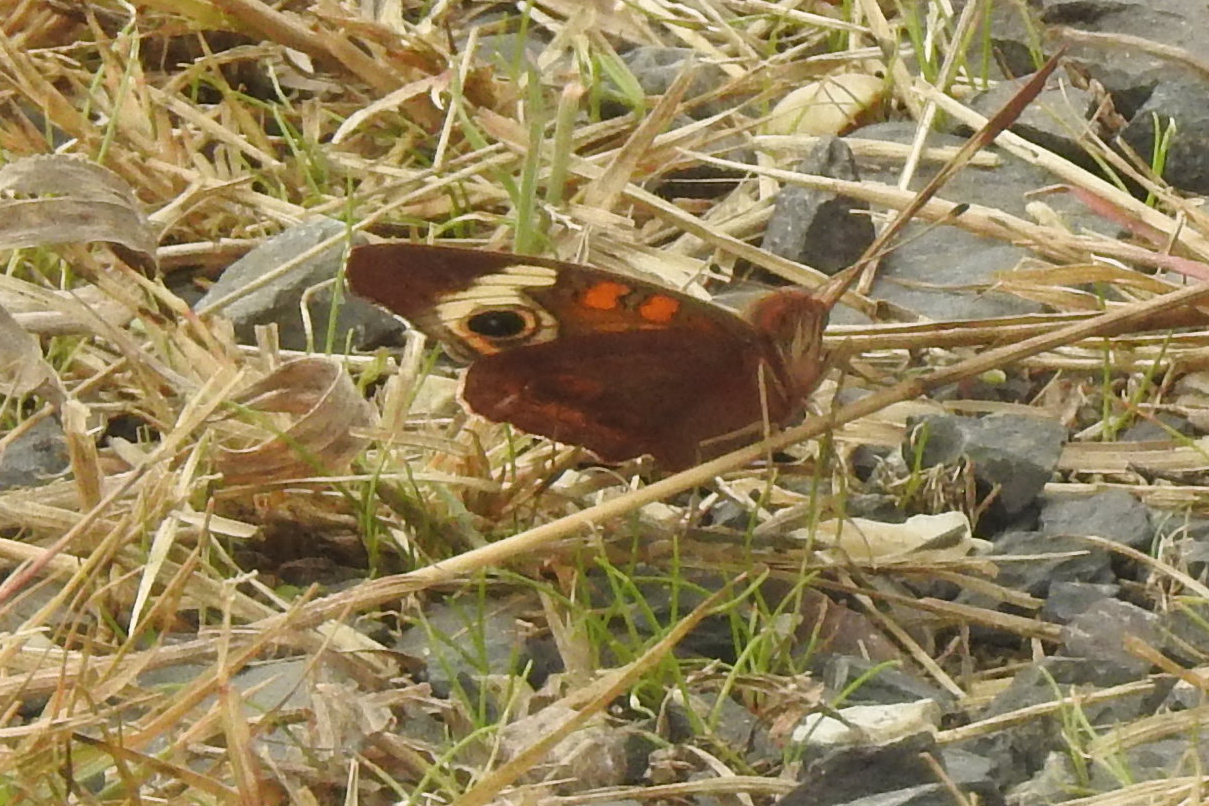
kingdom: Animalia
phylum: Arthropoda
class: Insecta
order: Lepidoptera
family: Nymphalidae
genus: Junonia
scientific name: Junonia coenia
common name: Common buckeye
